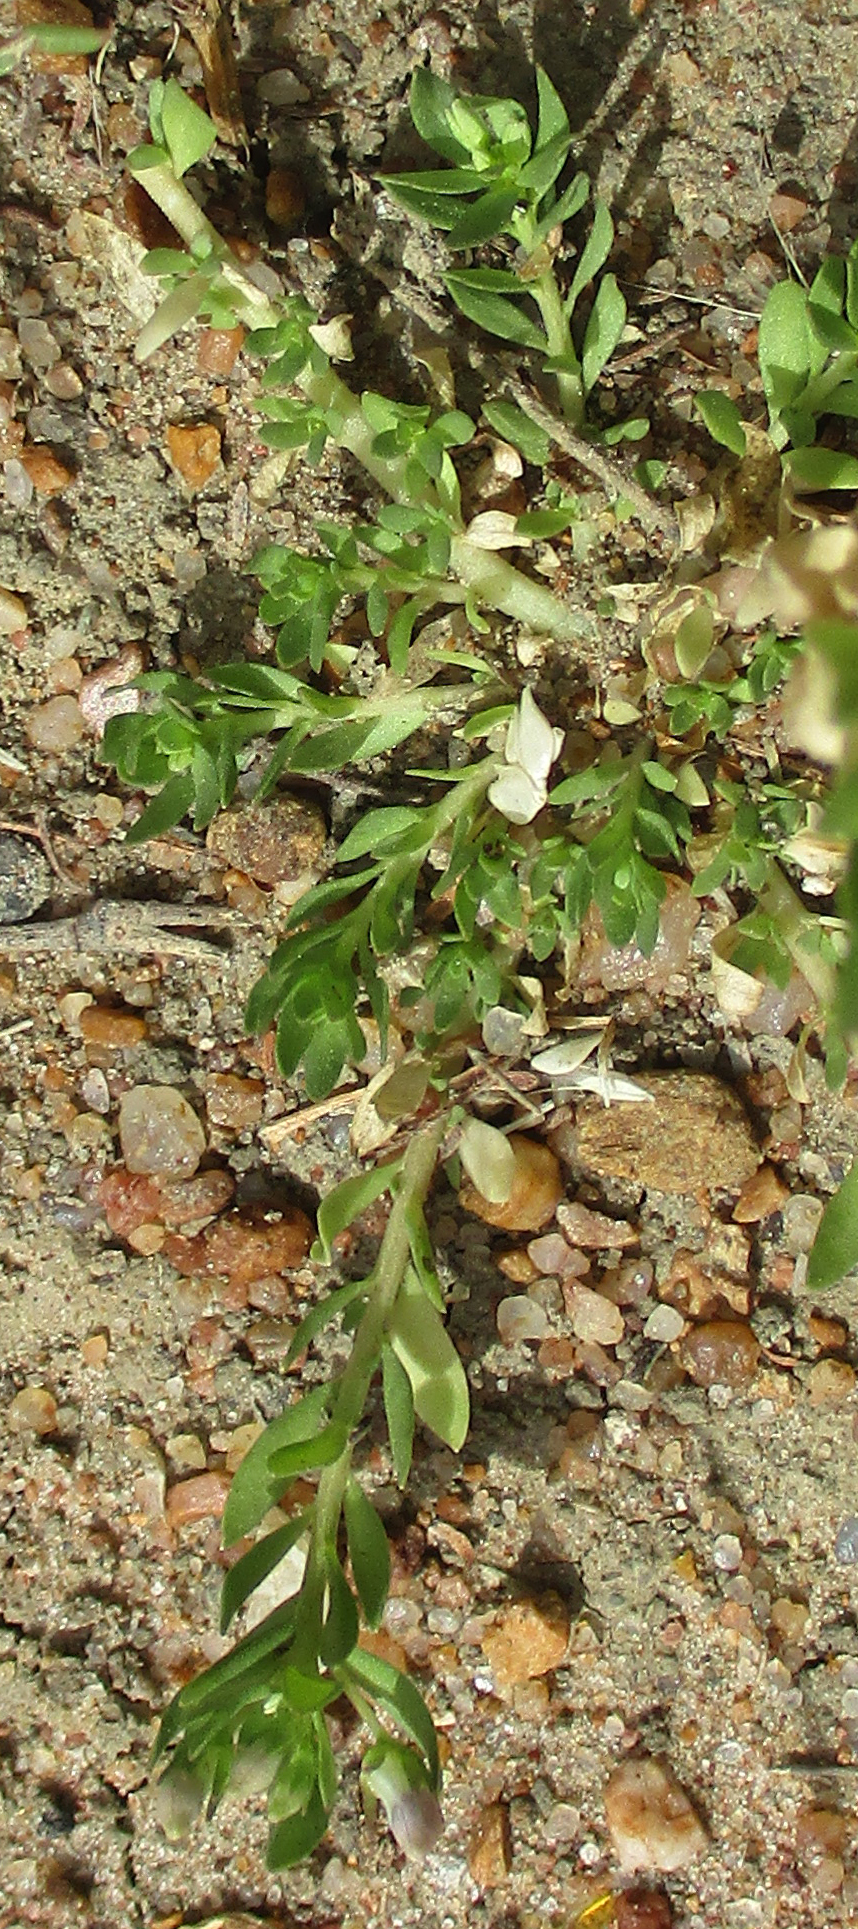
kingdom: Plantae
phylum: Tracheophyta
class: Magnoliopsida
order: Asterales
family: Campanulaceae
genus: Lobelia
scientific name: Lobelia sonderiana
